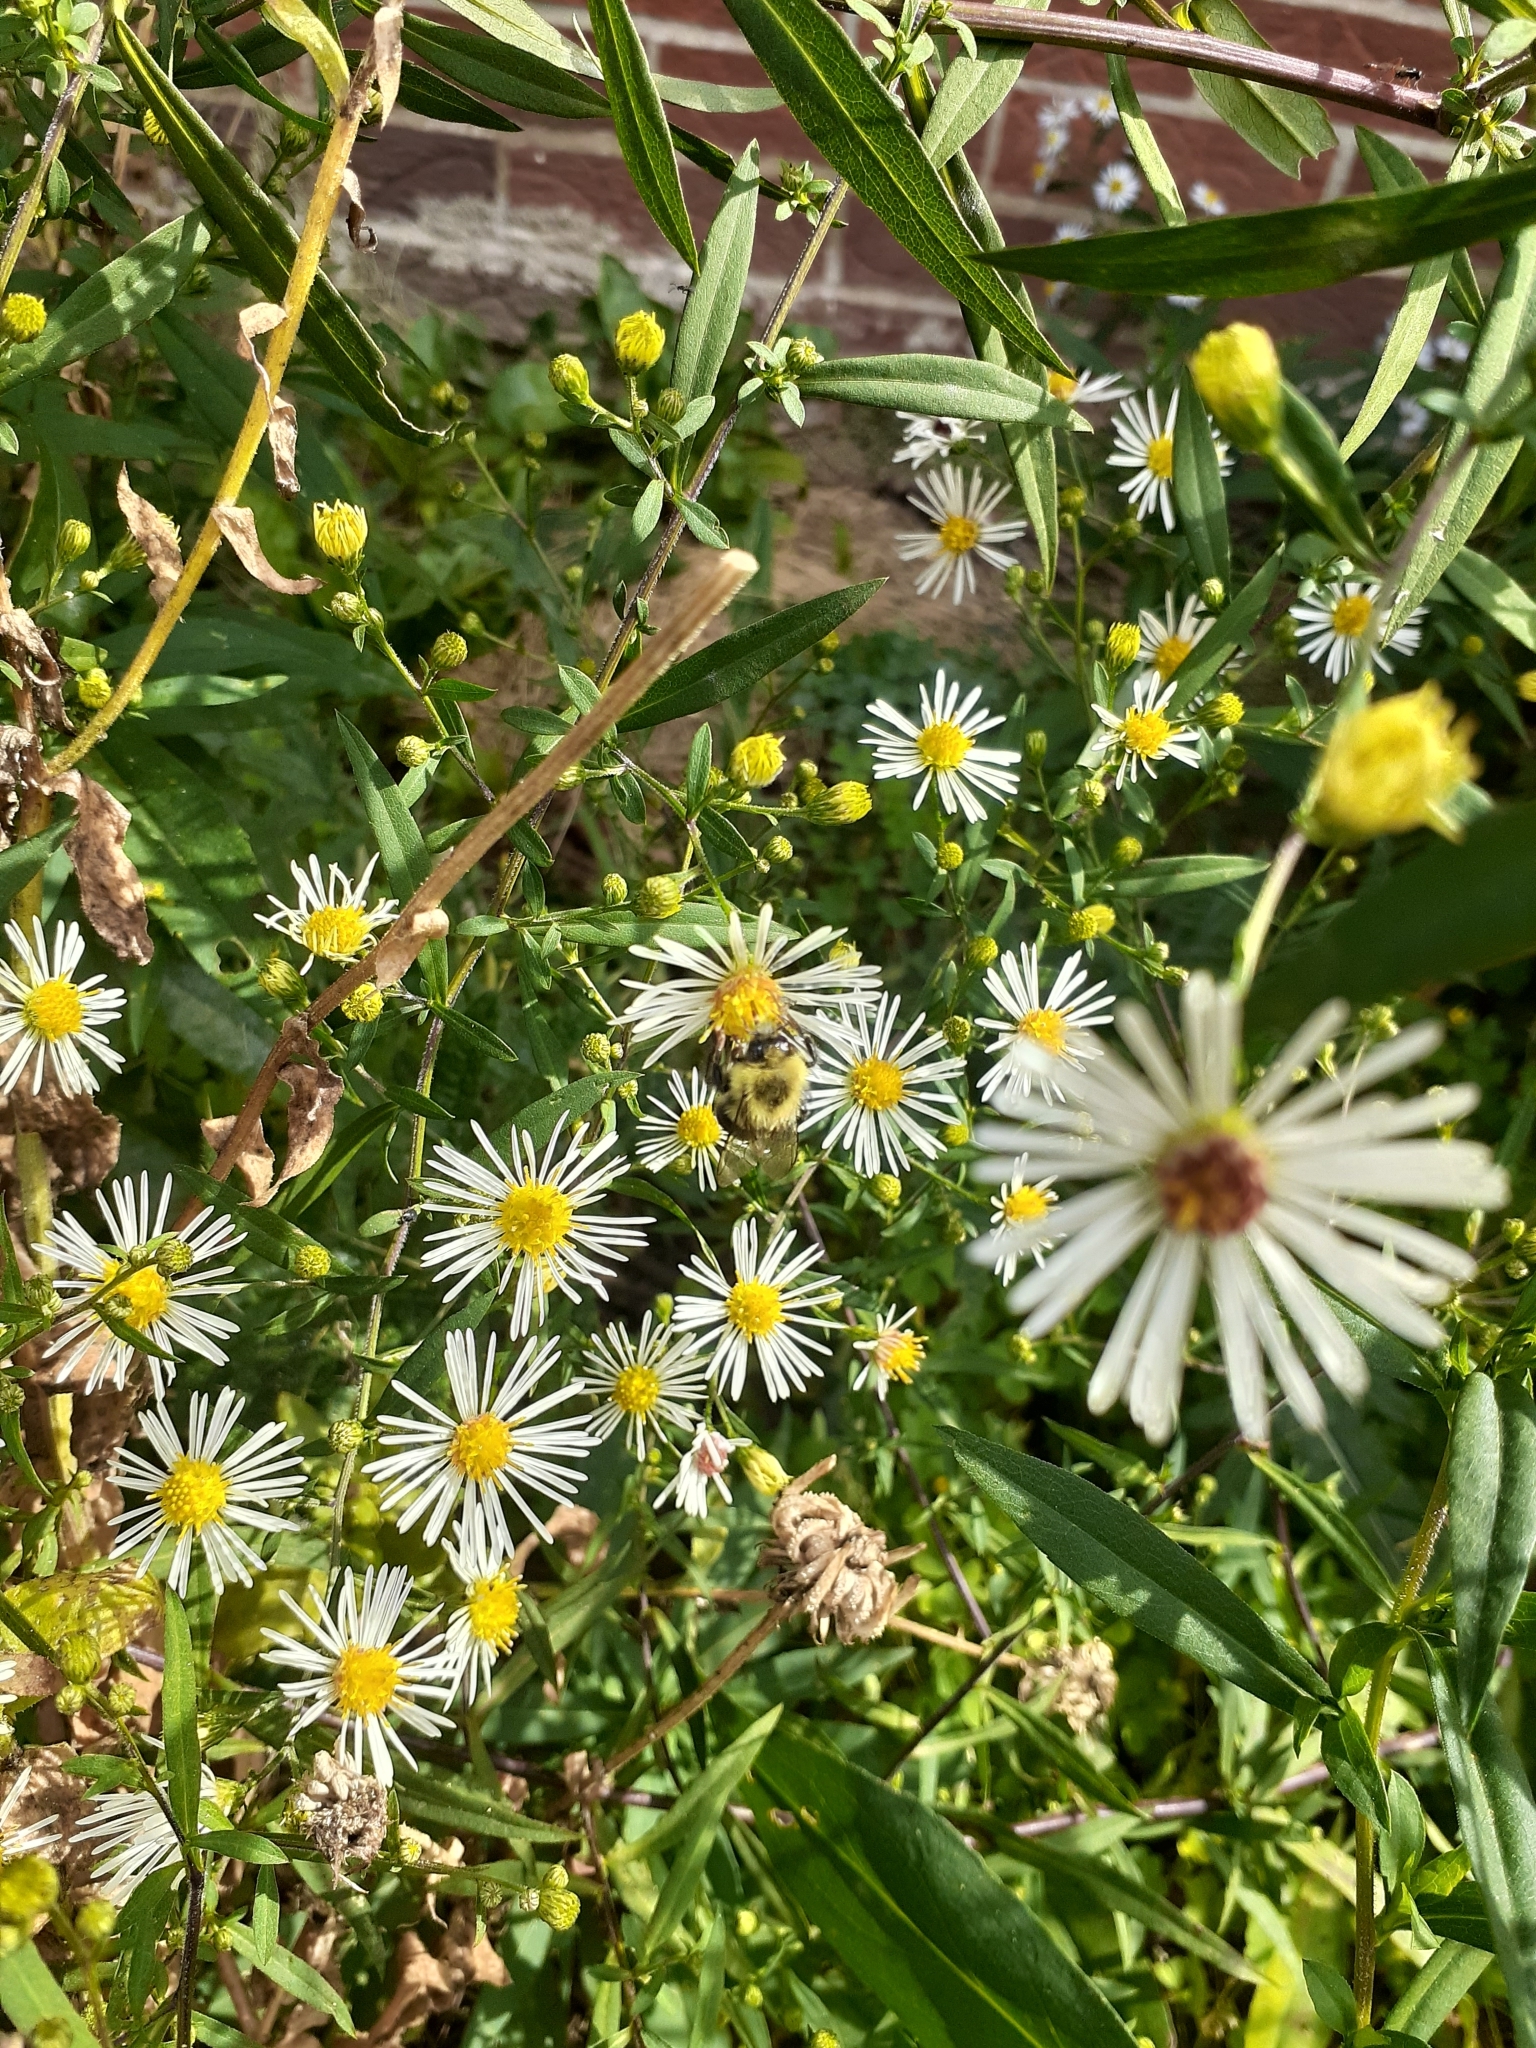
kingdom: Animalia
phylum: Arthropoda
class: Insecta
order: Hymenoptera
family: Apidae
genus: Bombus
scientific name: Bombus impatiens
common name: Common eastern bumble bee
